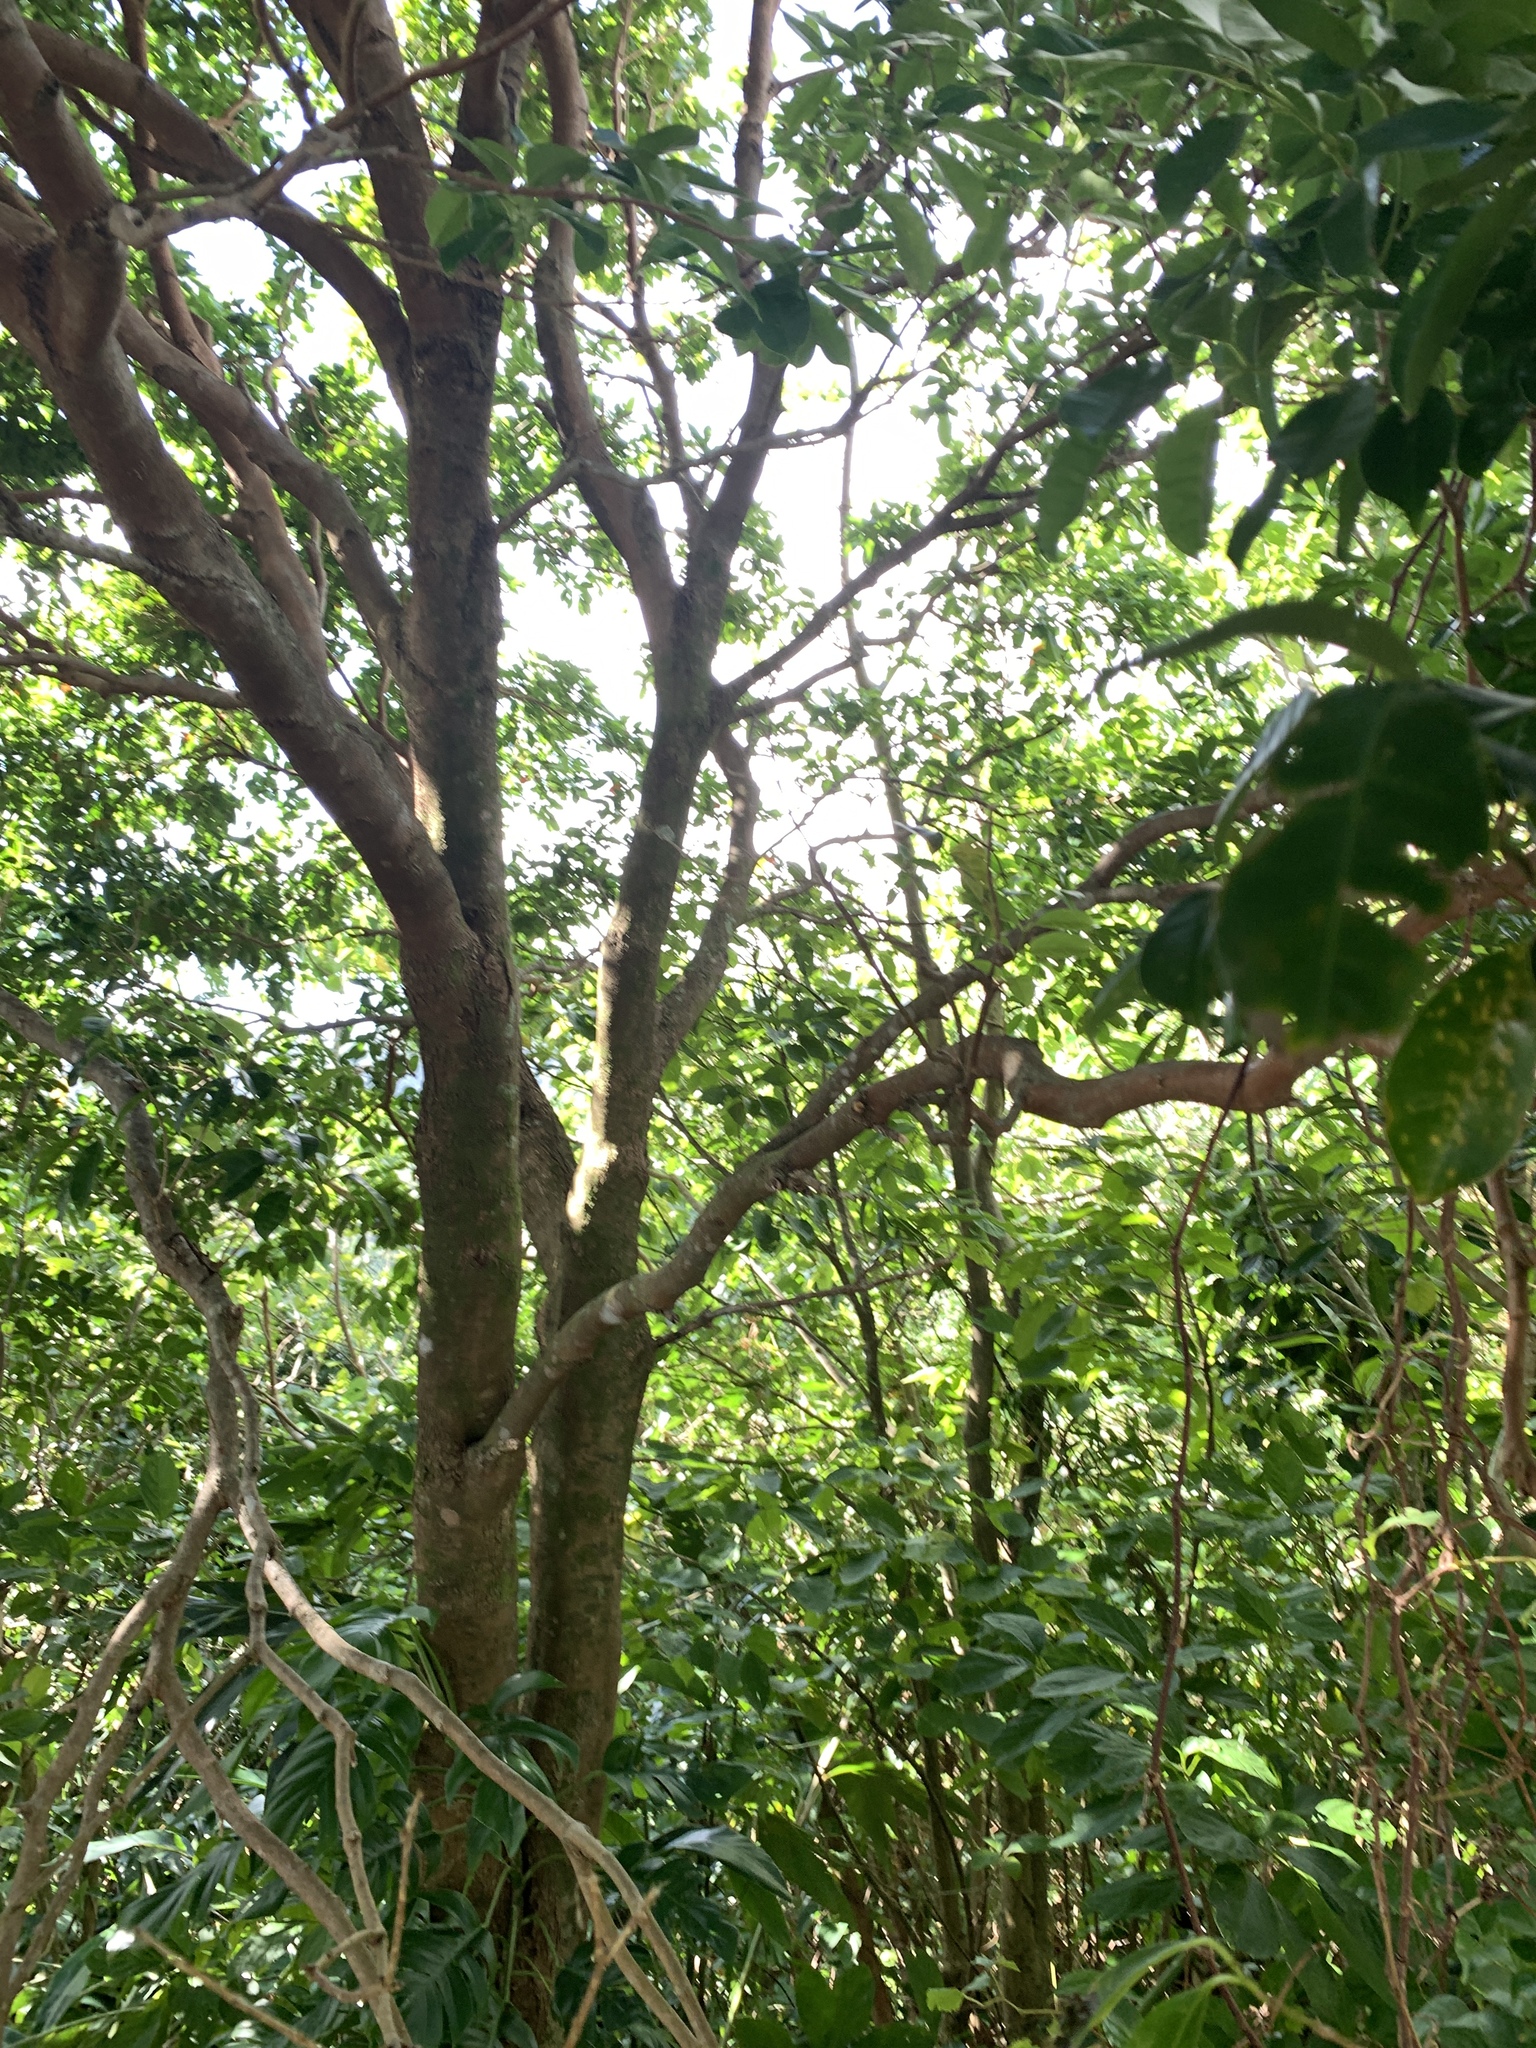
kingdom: Plantae
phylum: Tracheophyta
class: Magnoliopsida
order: Myrtales
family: Myrtaceae
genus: Syzygium
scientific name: Syzygium simile
